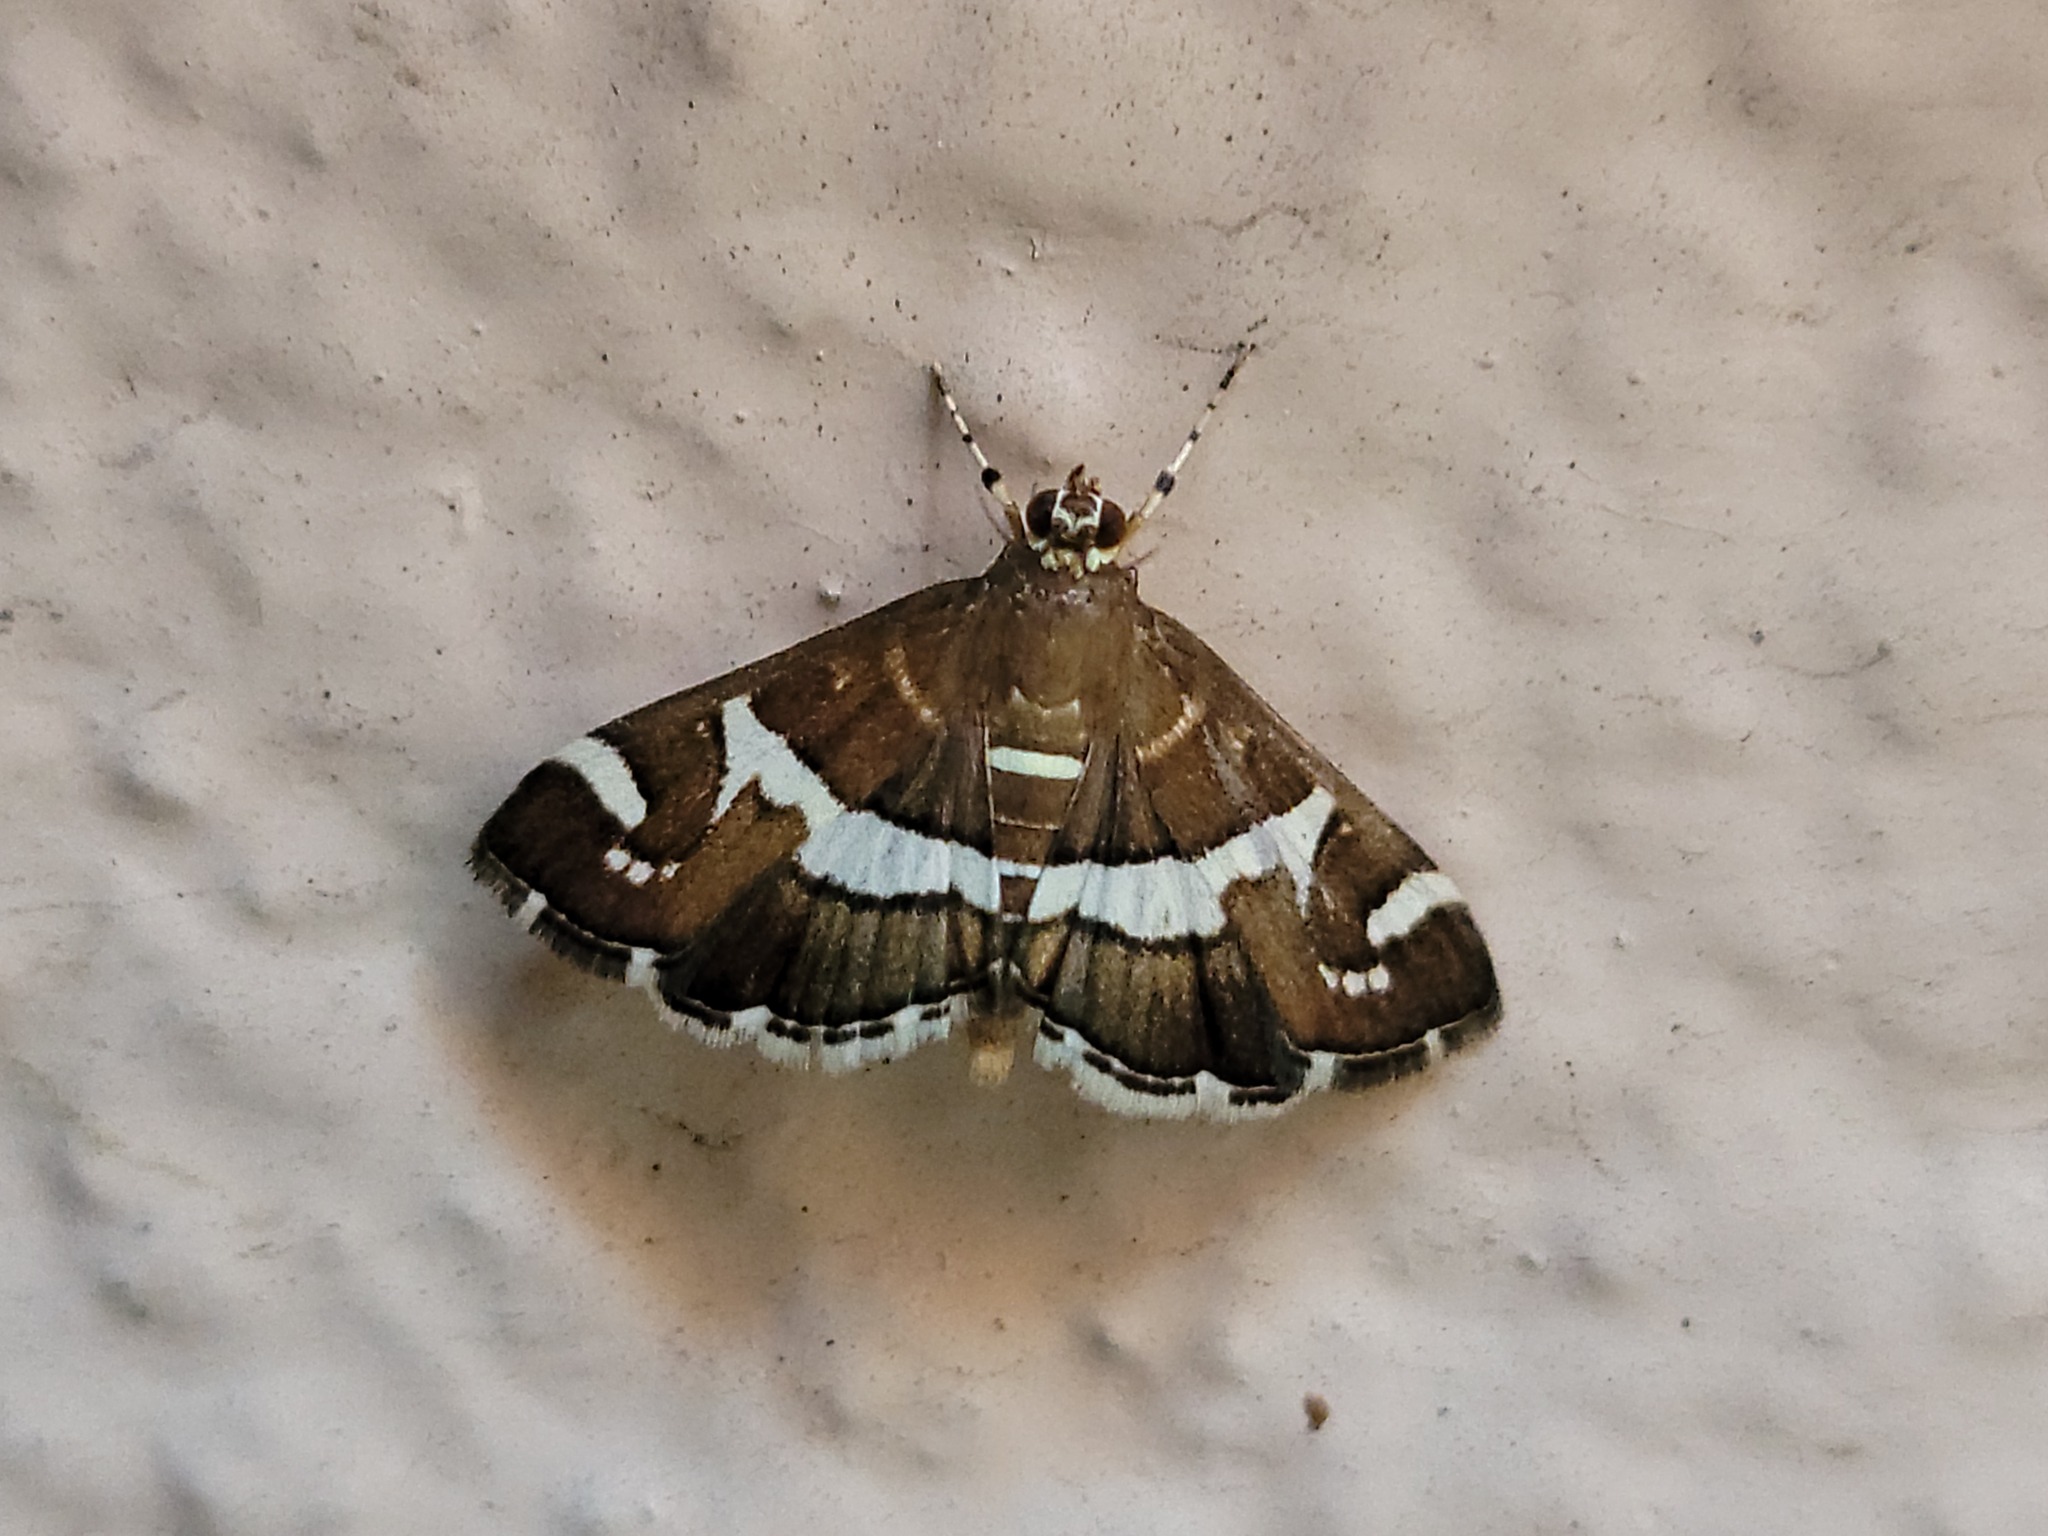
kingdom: Animalia
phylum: Arthropoda
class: Insecta
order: Lepidoptera
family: Crambidae
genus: Spoladea
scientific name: Spoladea recurvalis
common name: Beet webworm moth
